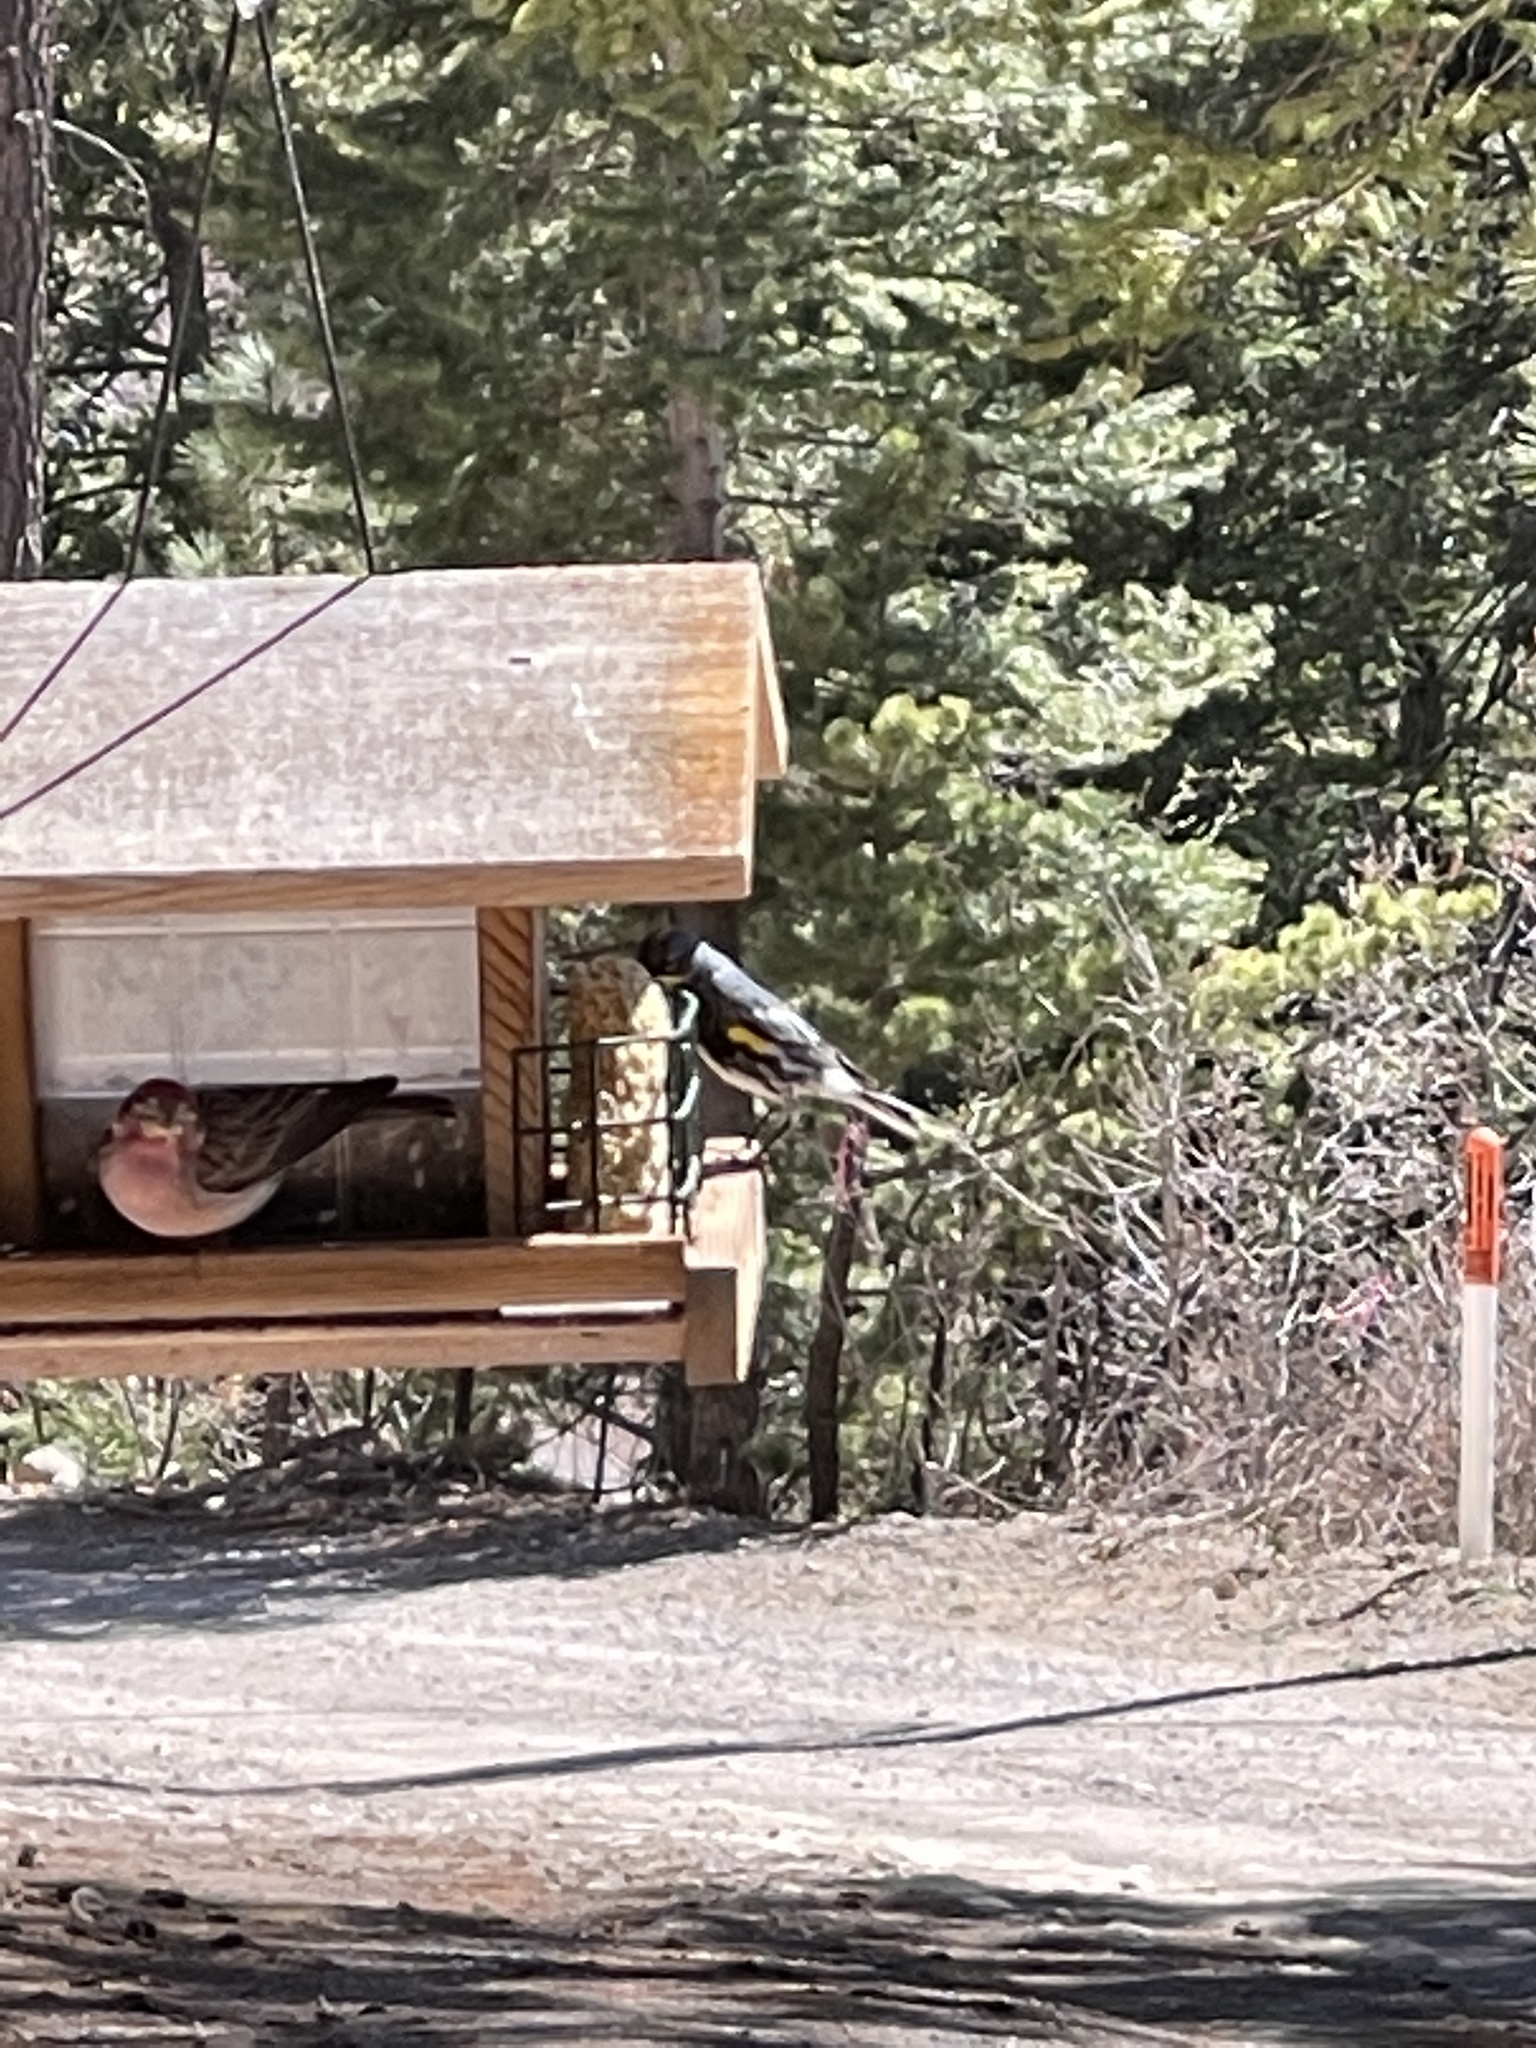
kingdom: Animalia
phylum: Chordata
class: Aves
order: Passeriformes
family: Fringillidae
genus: Haemorhous
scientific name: Haemorhous cassinii
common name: Cassin's finch
